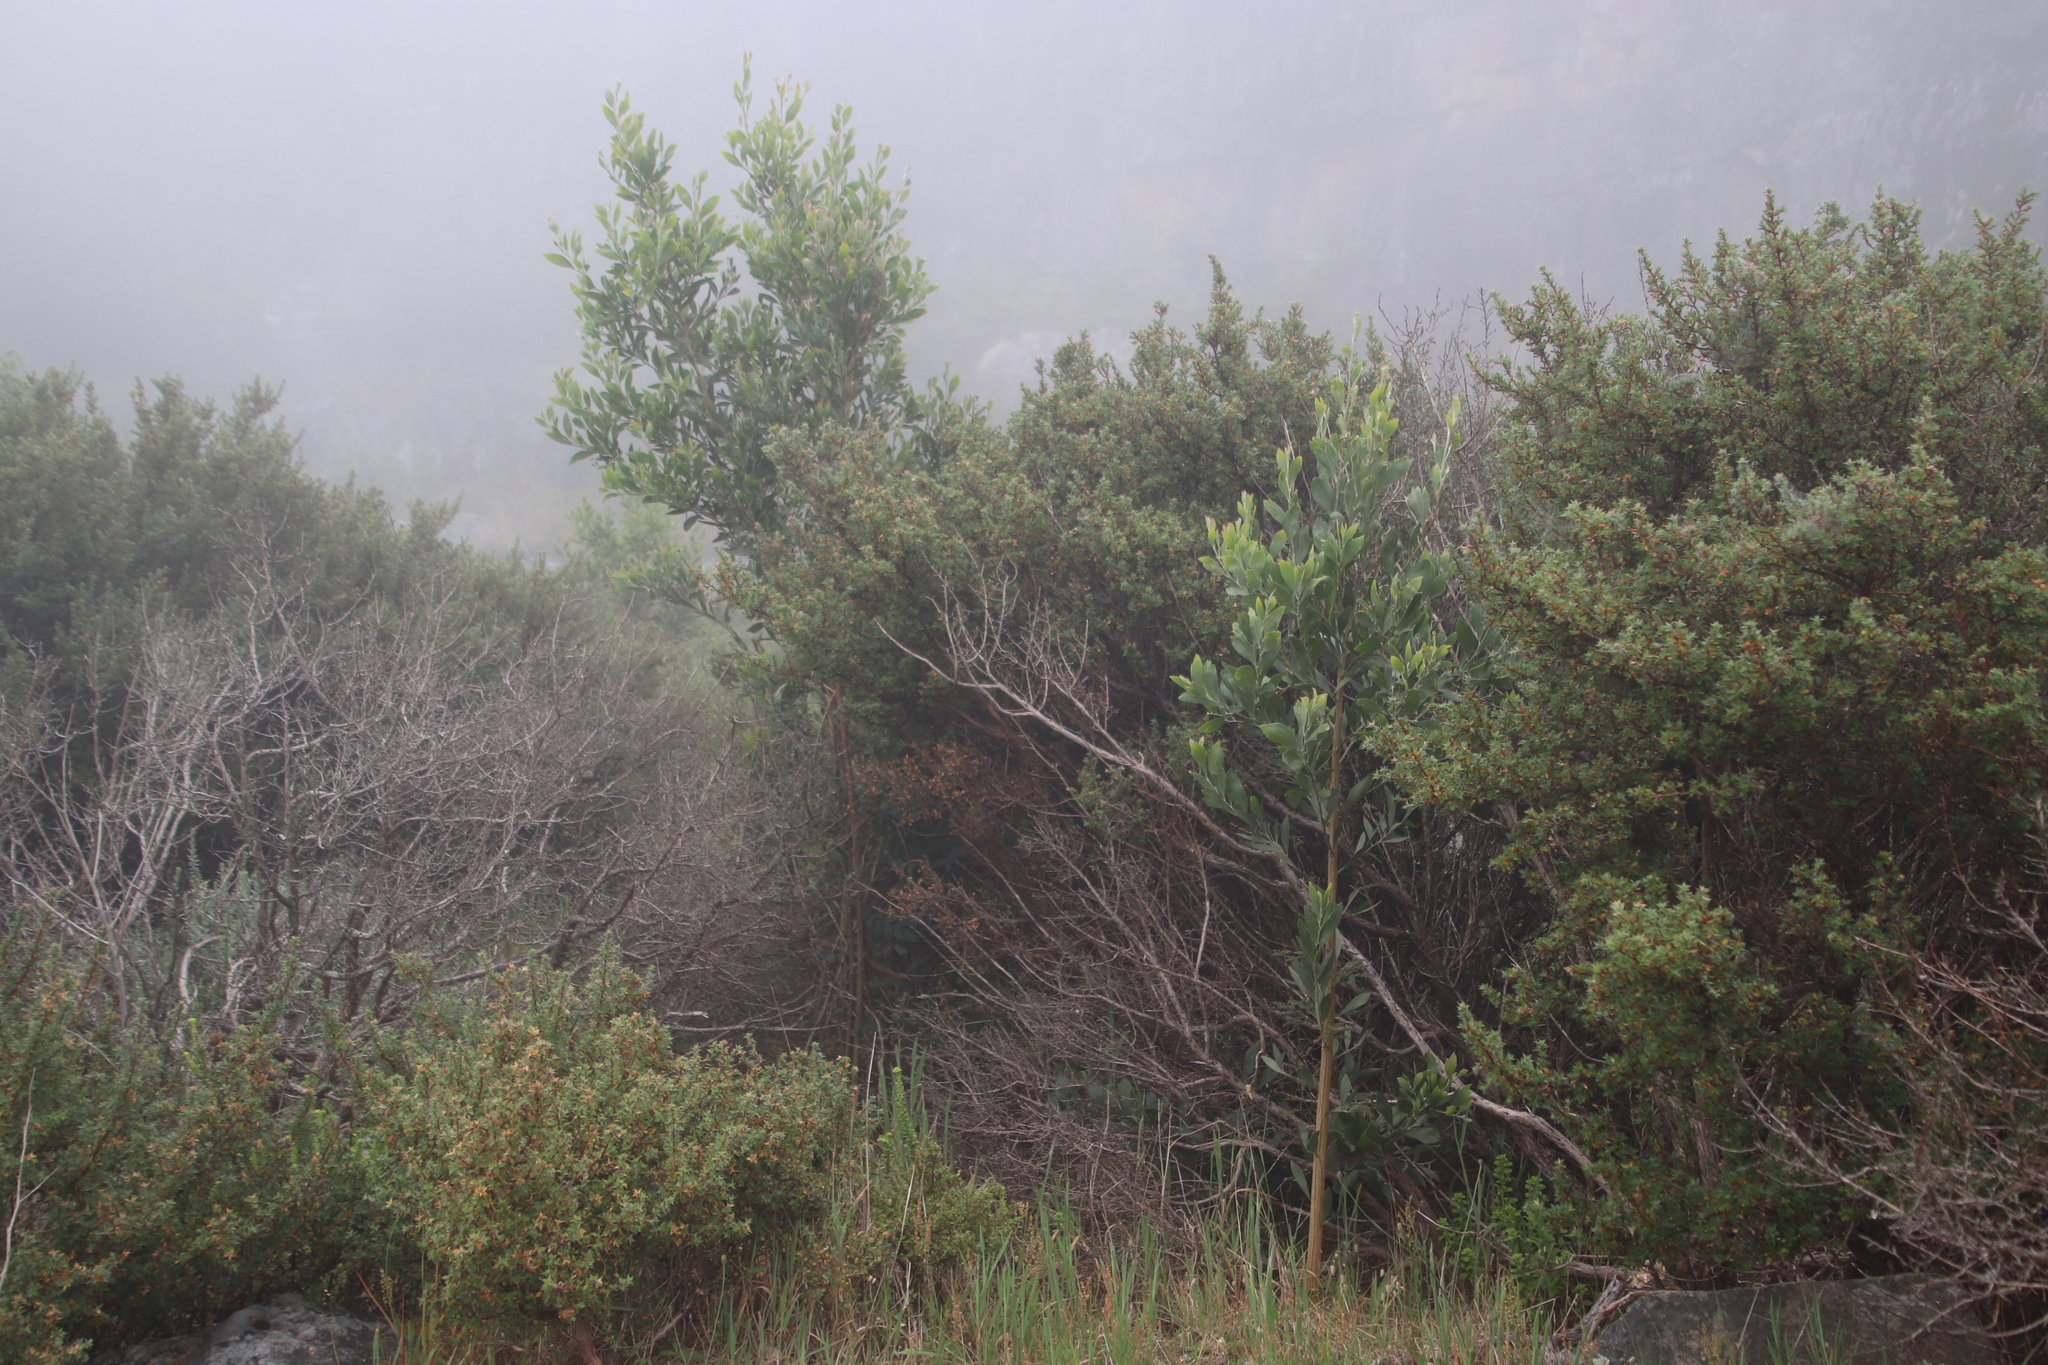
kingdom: Plantae
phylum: Tracheophyta
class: Magnoliopsida
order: Fabales
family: Fabaceae
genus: Acacia
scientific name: Acacia melanoxylon
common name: Blackwood
